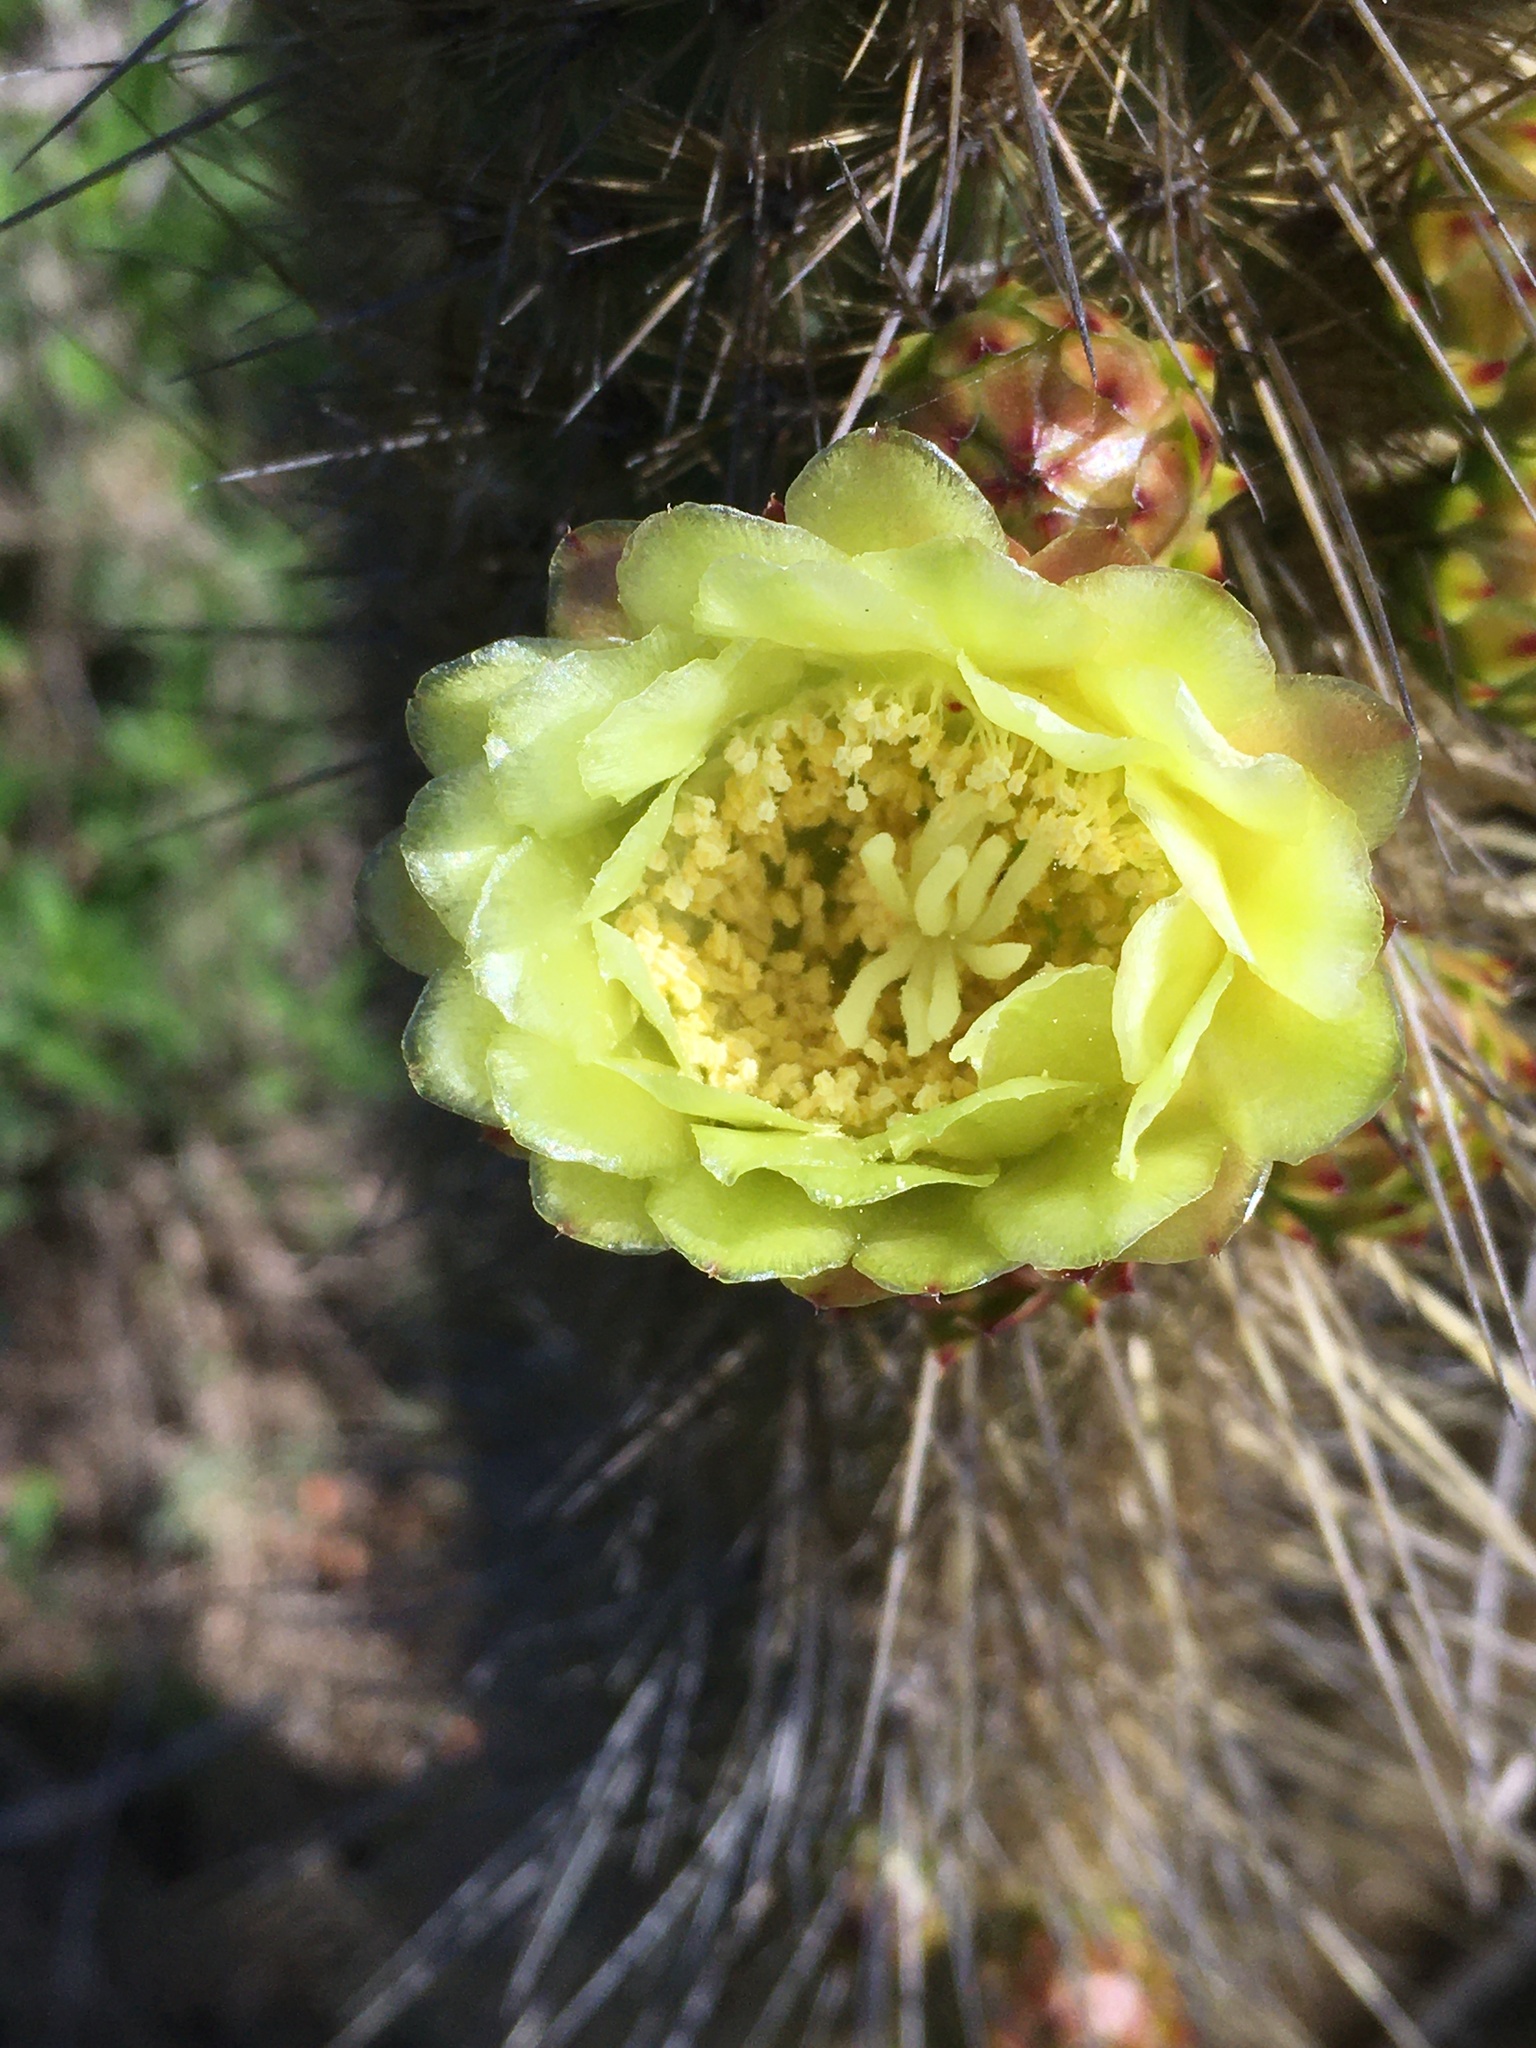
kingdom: Plantae
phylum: Tracheophyta
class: Magnoliopsida
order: Caryophyllales
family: Cactaceae
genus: Bergerocactus
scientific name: Bergerocactus emoryi
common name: Golden snakecactus
